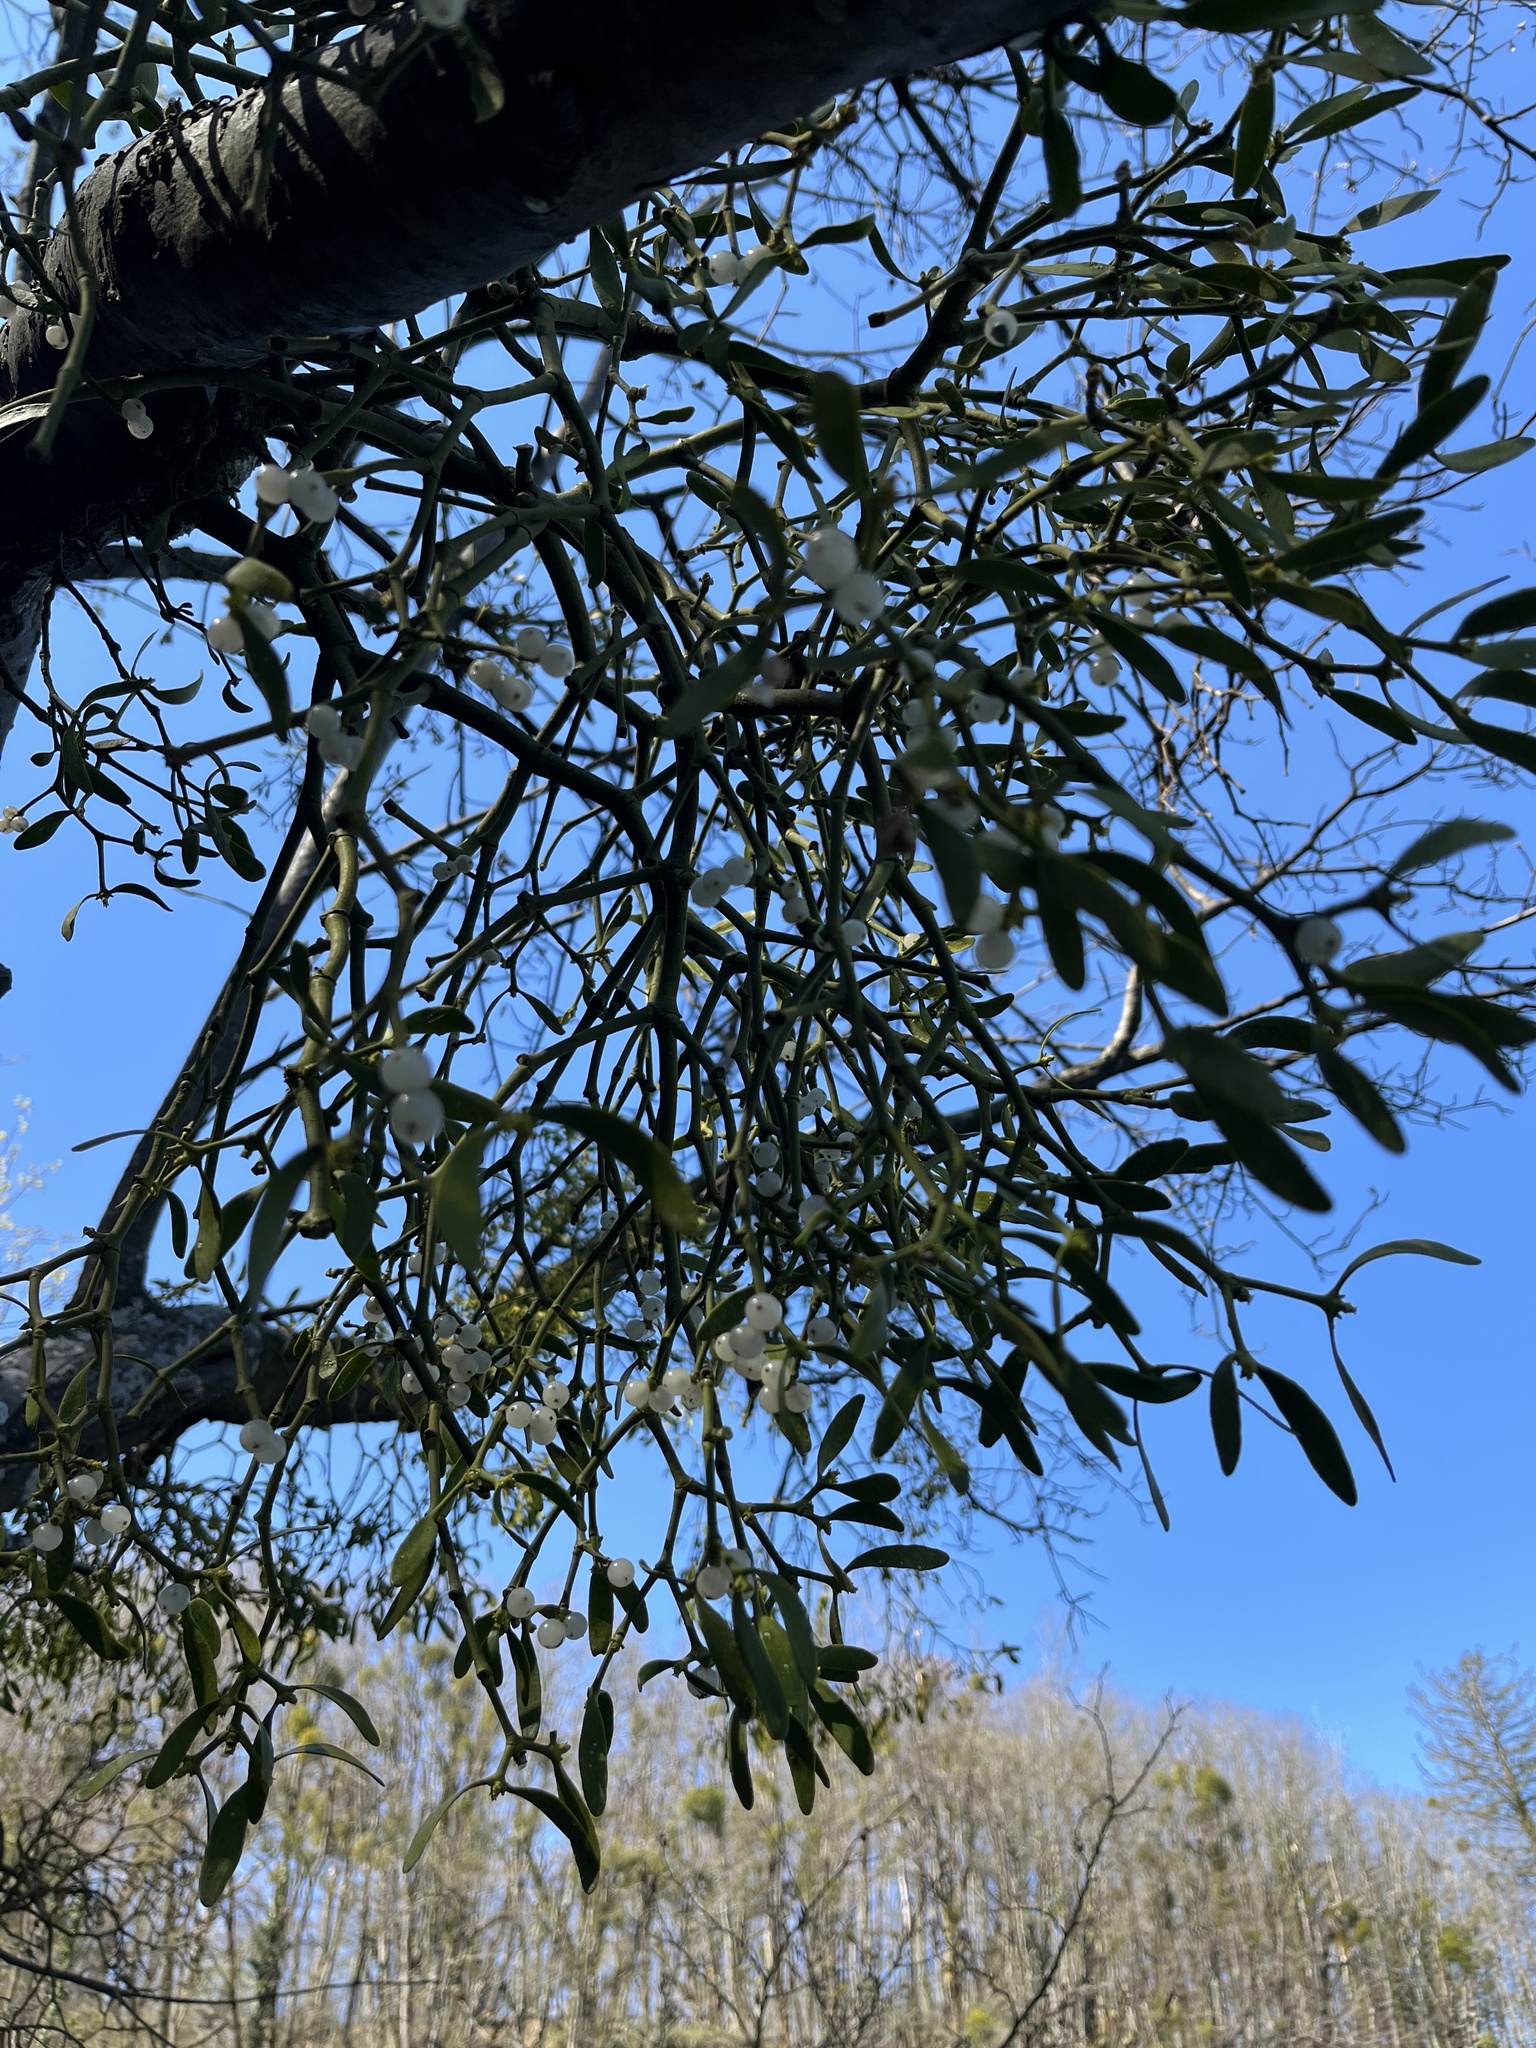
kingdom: Plantae
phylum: Tracheophyta
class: Magnoliopsida
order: Santalales
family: Viscaceae
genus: Viscum
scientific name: Viscum album
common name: Mistletoe
